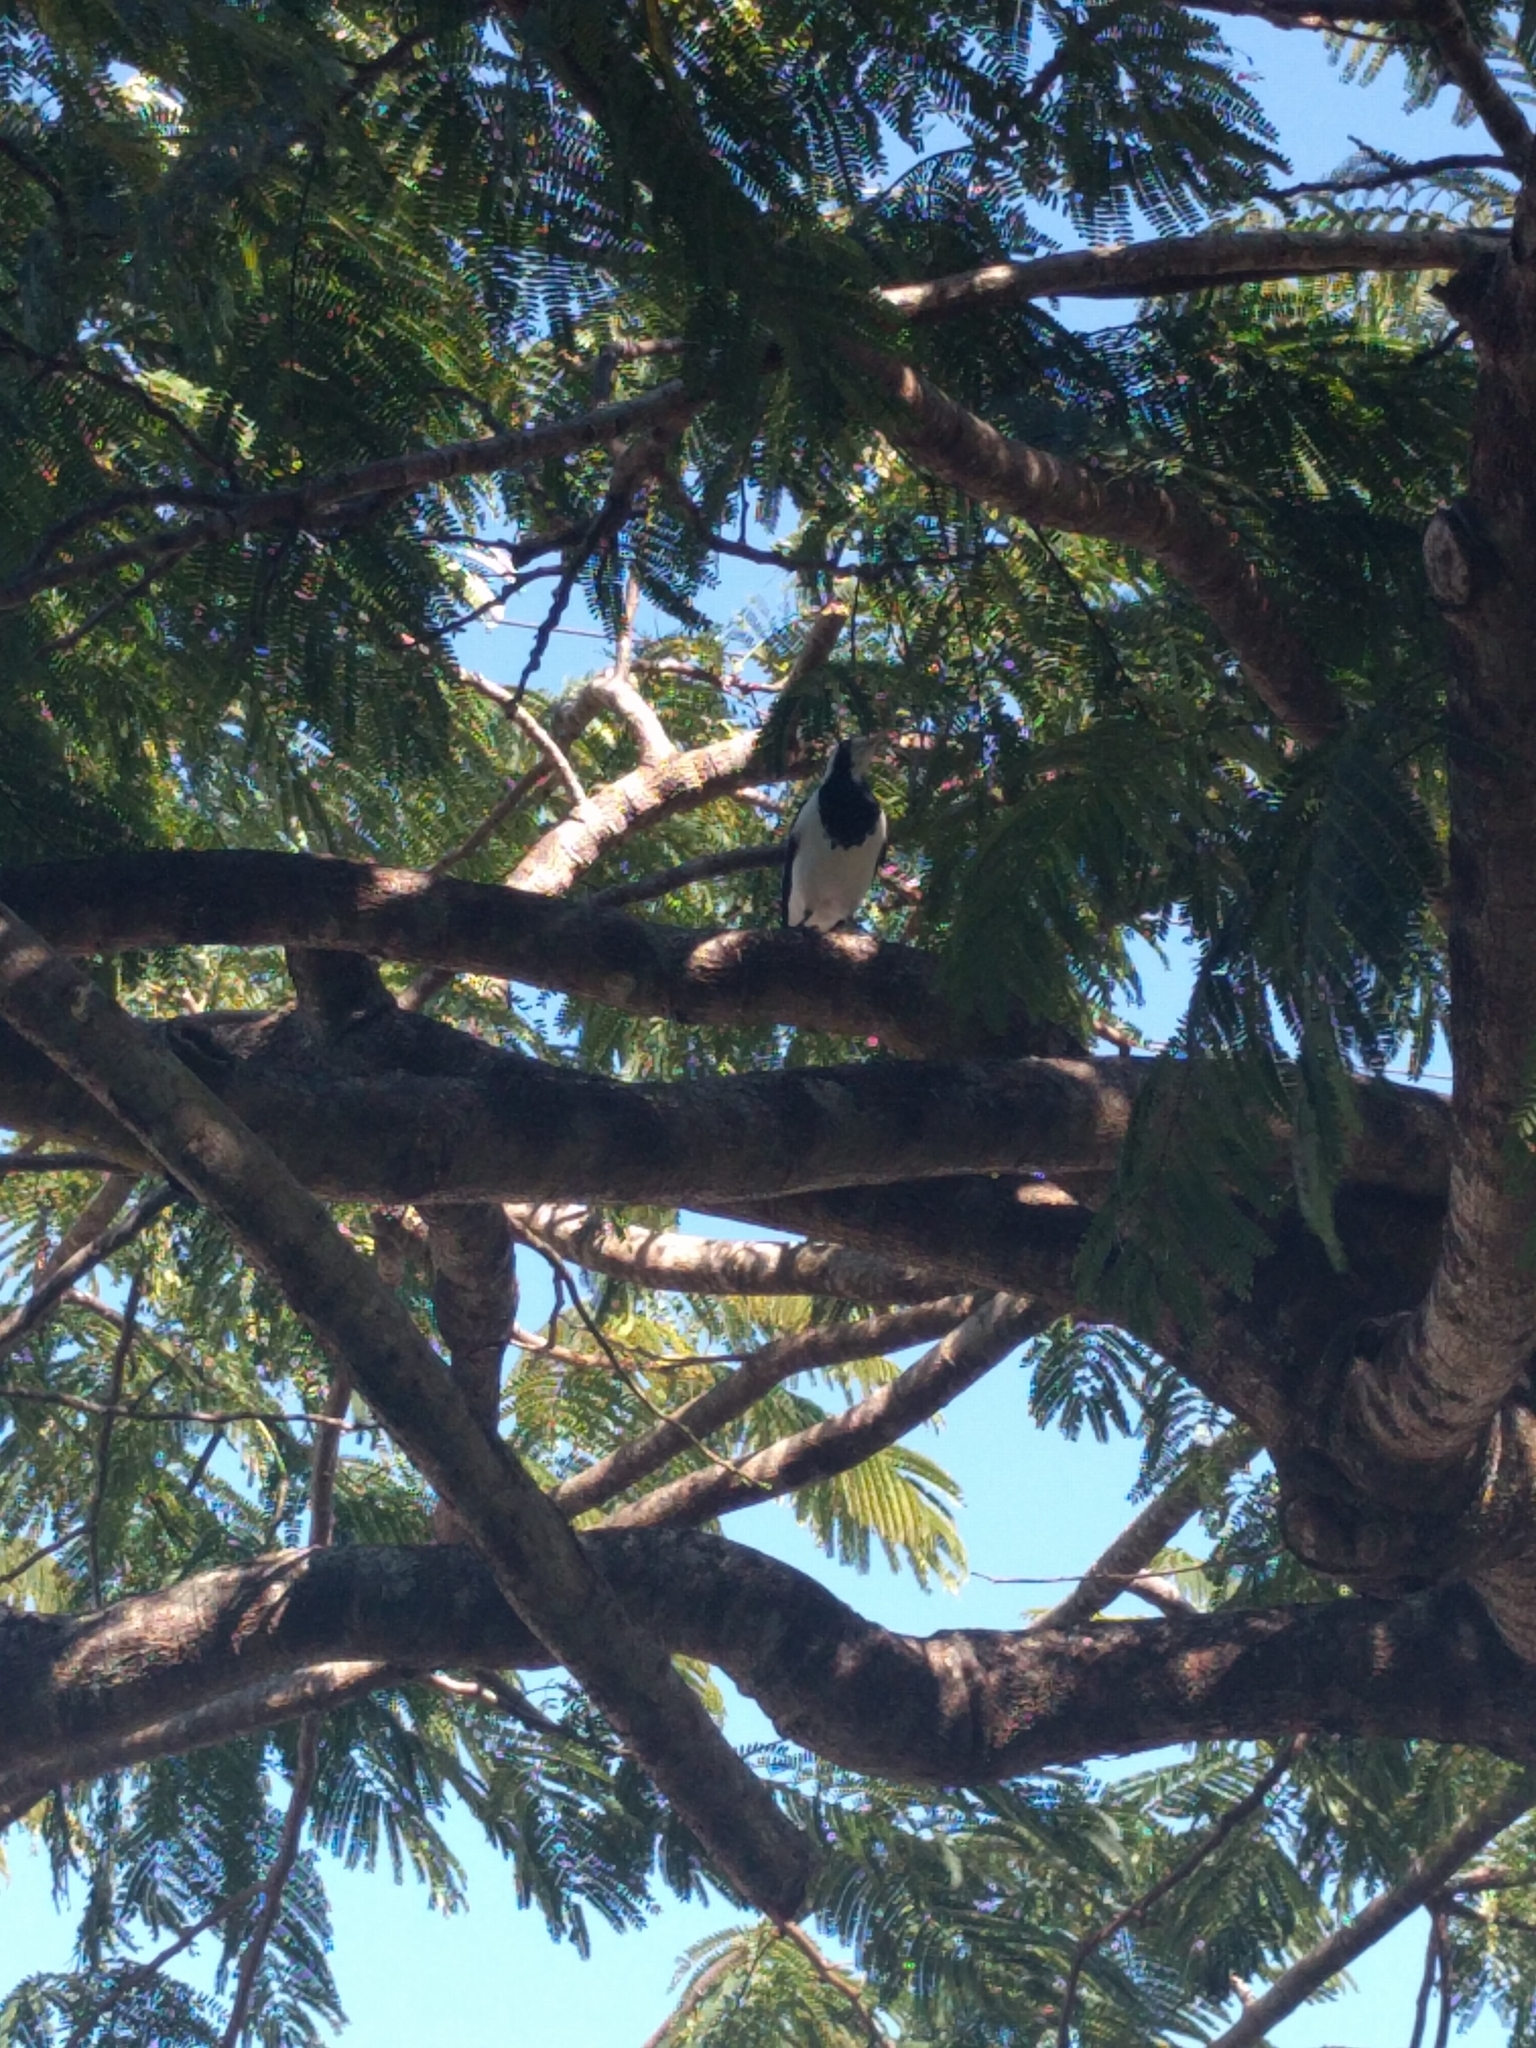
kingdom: Animalia
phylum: Chordata
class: Aves
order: Passeriformes
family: Monarchidae
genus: Grallina
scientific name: Grallina cyanoleuca
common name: Magpie-lark
